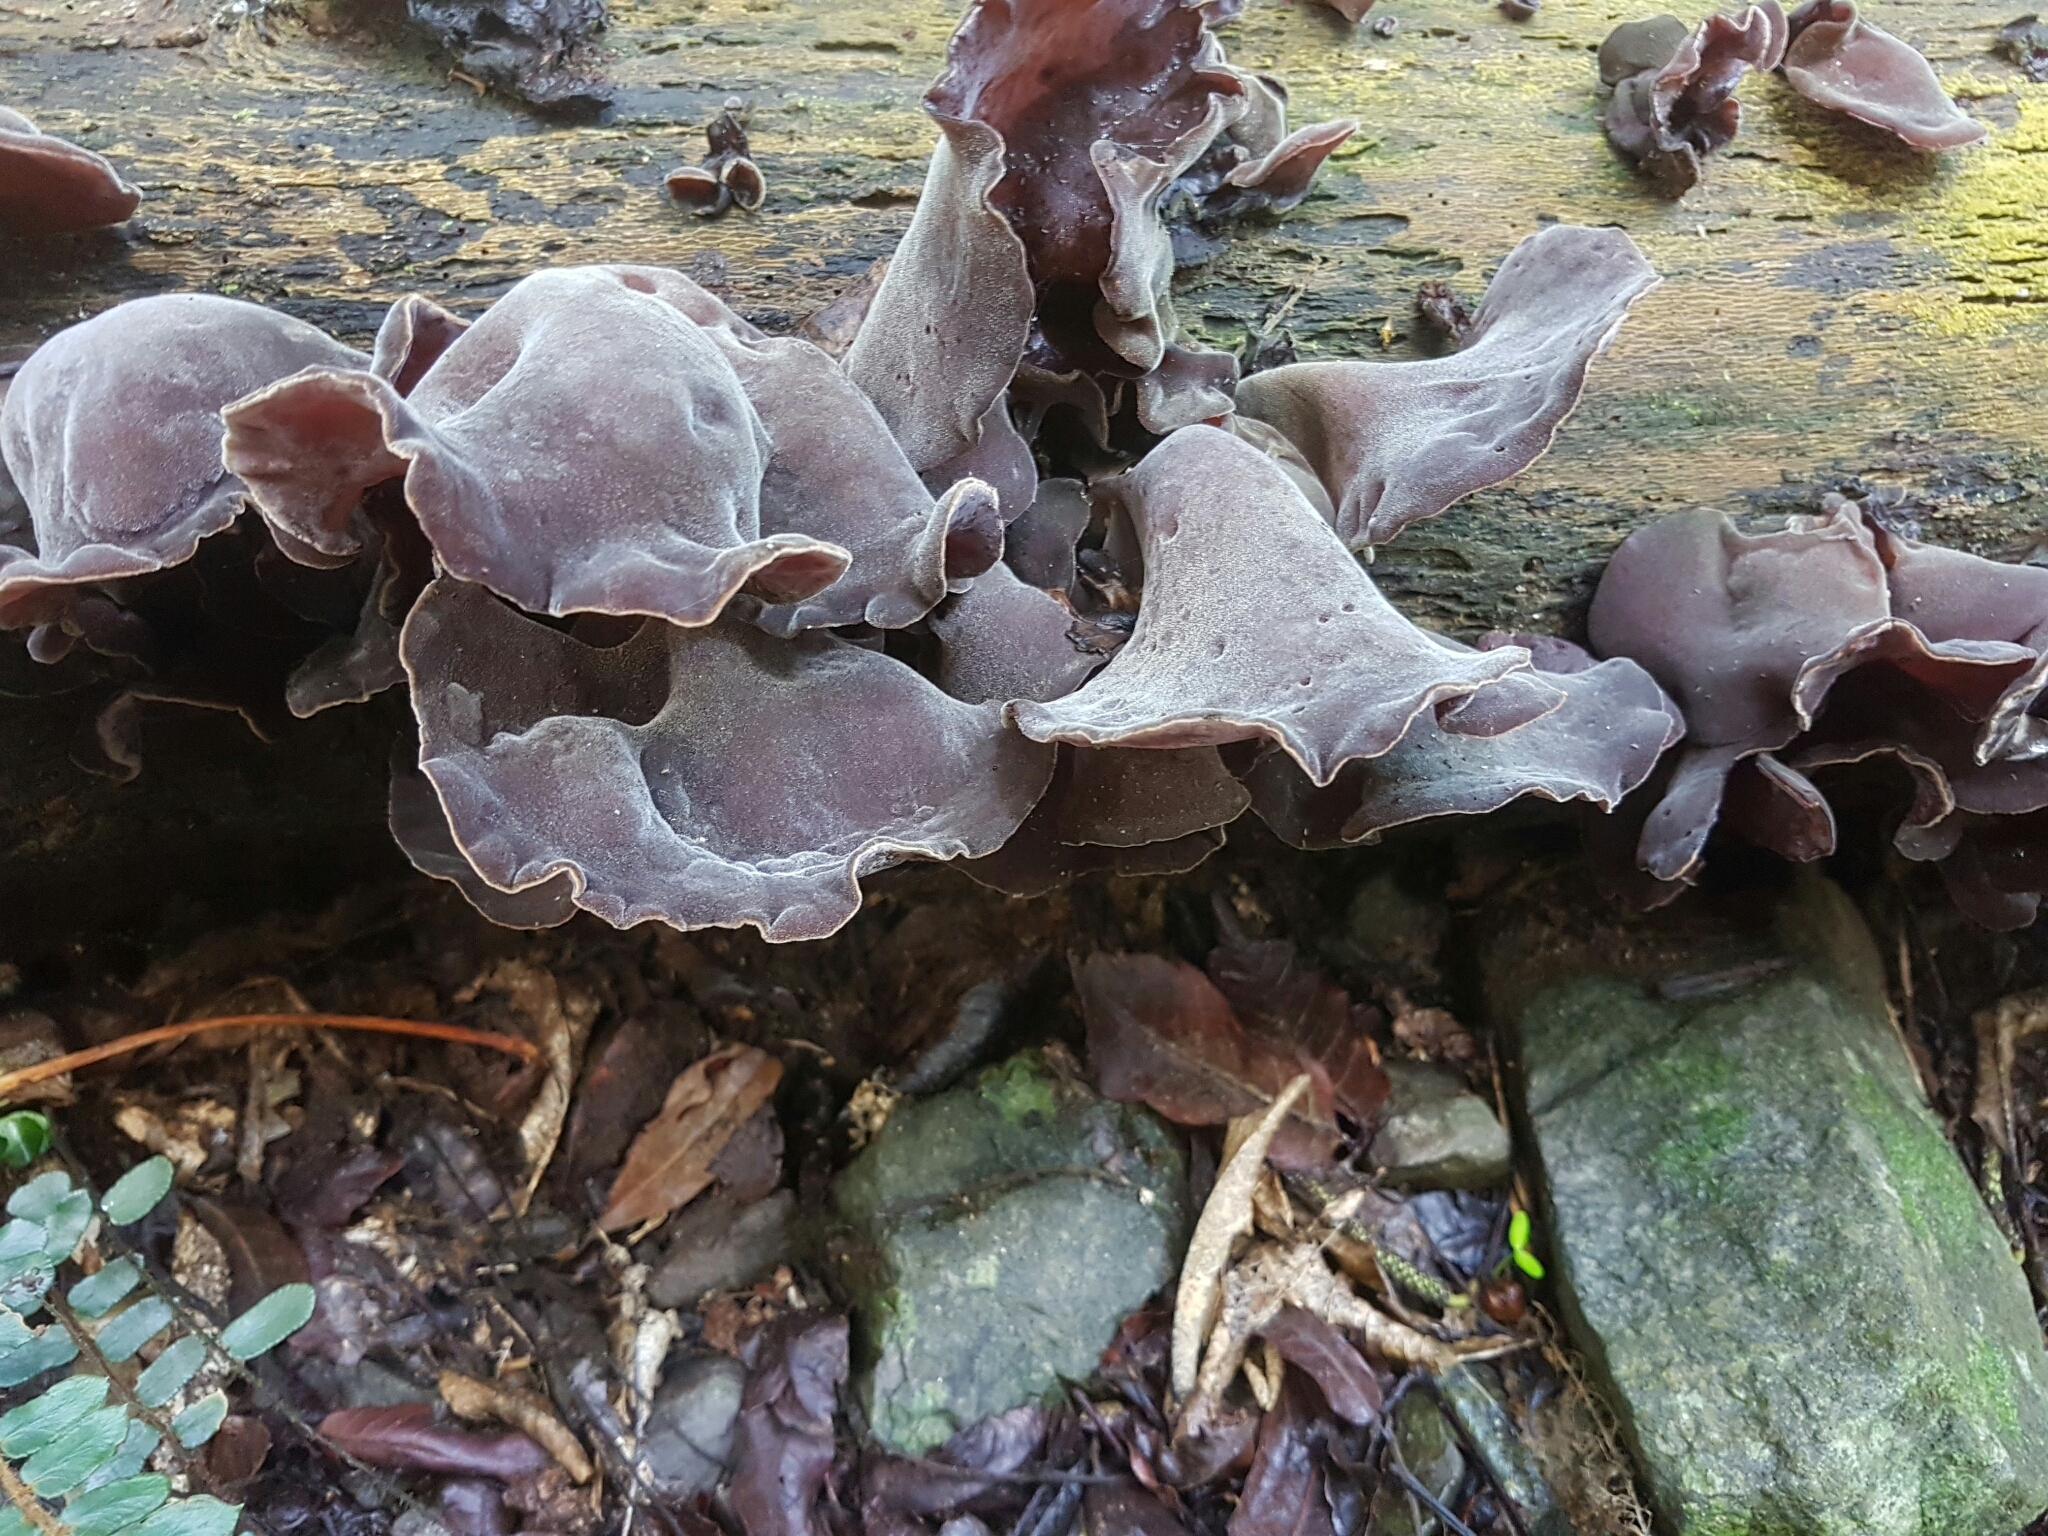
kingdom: Fungi
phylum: Basidiomycota
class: Agaricomycetes
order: Auriculariales
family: Auriculariaceae
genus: Auricularia
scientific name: Auricularia cornea
